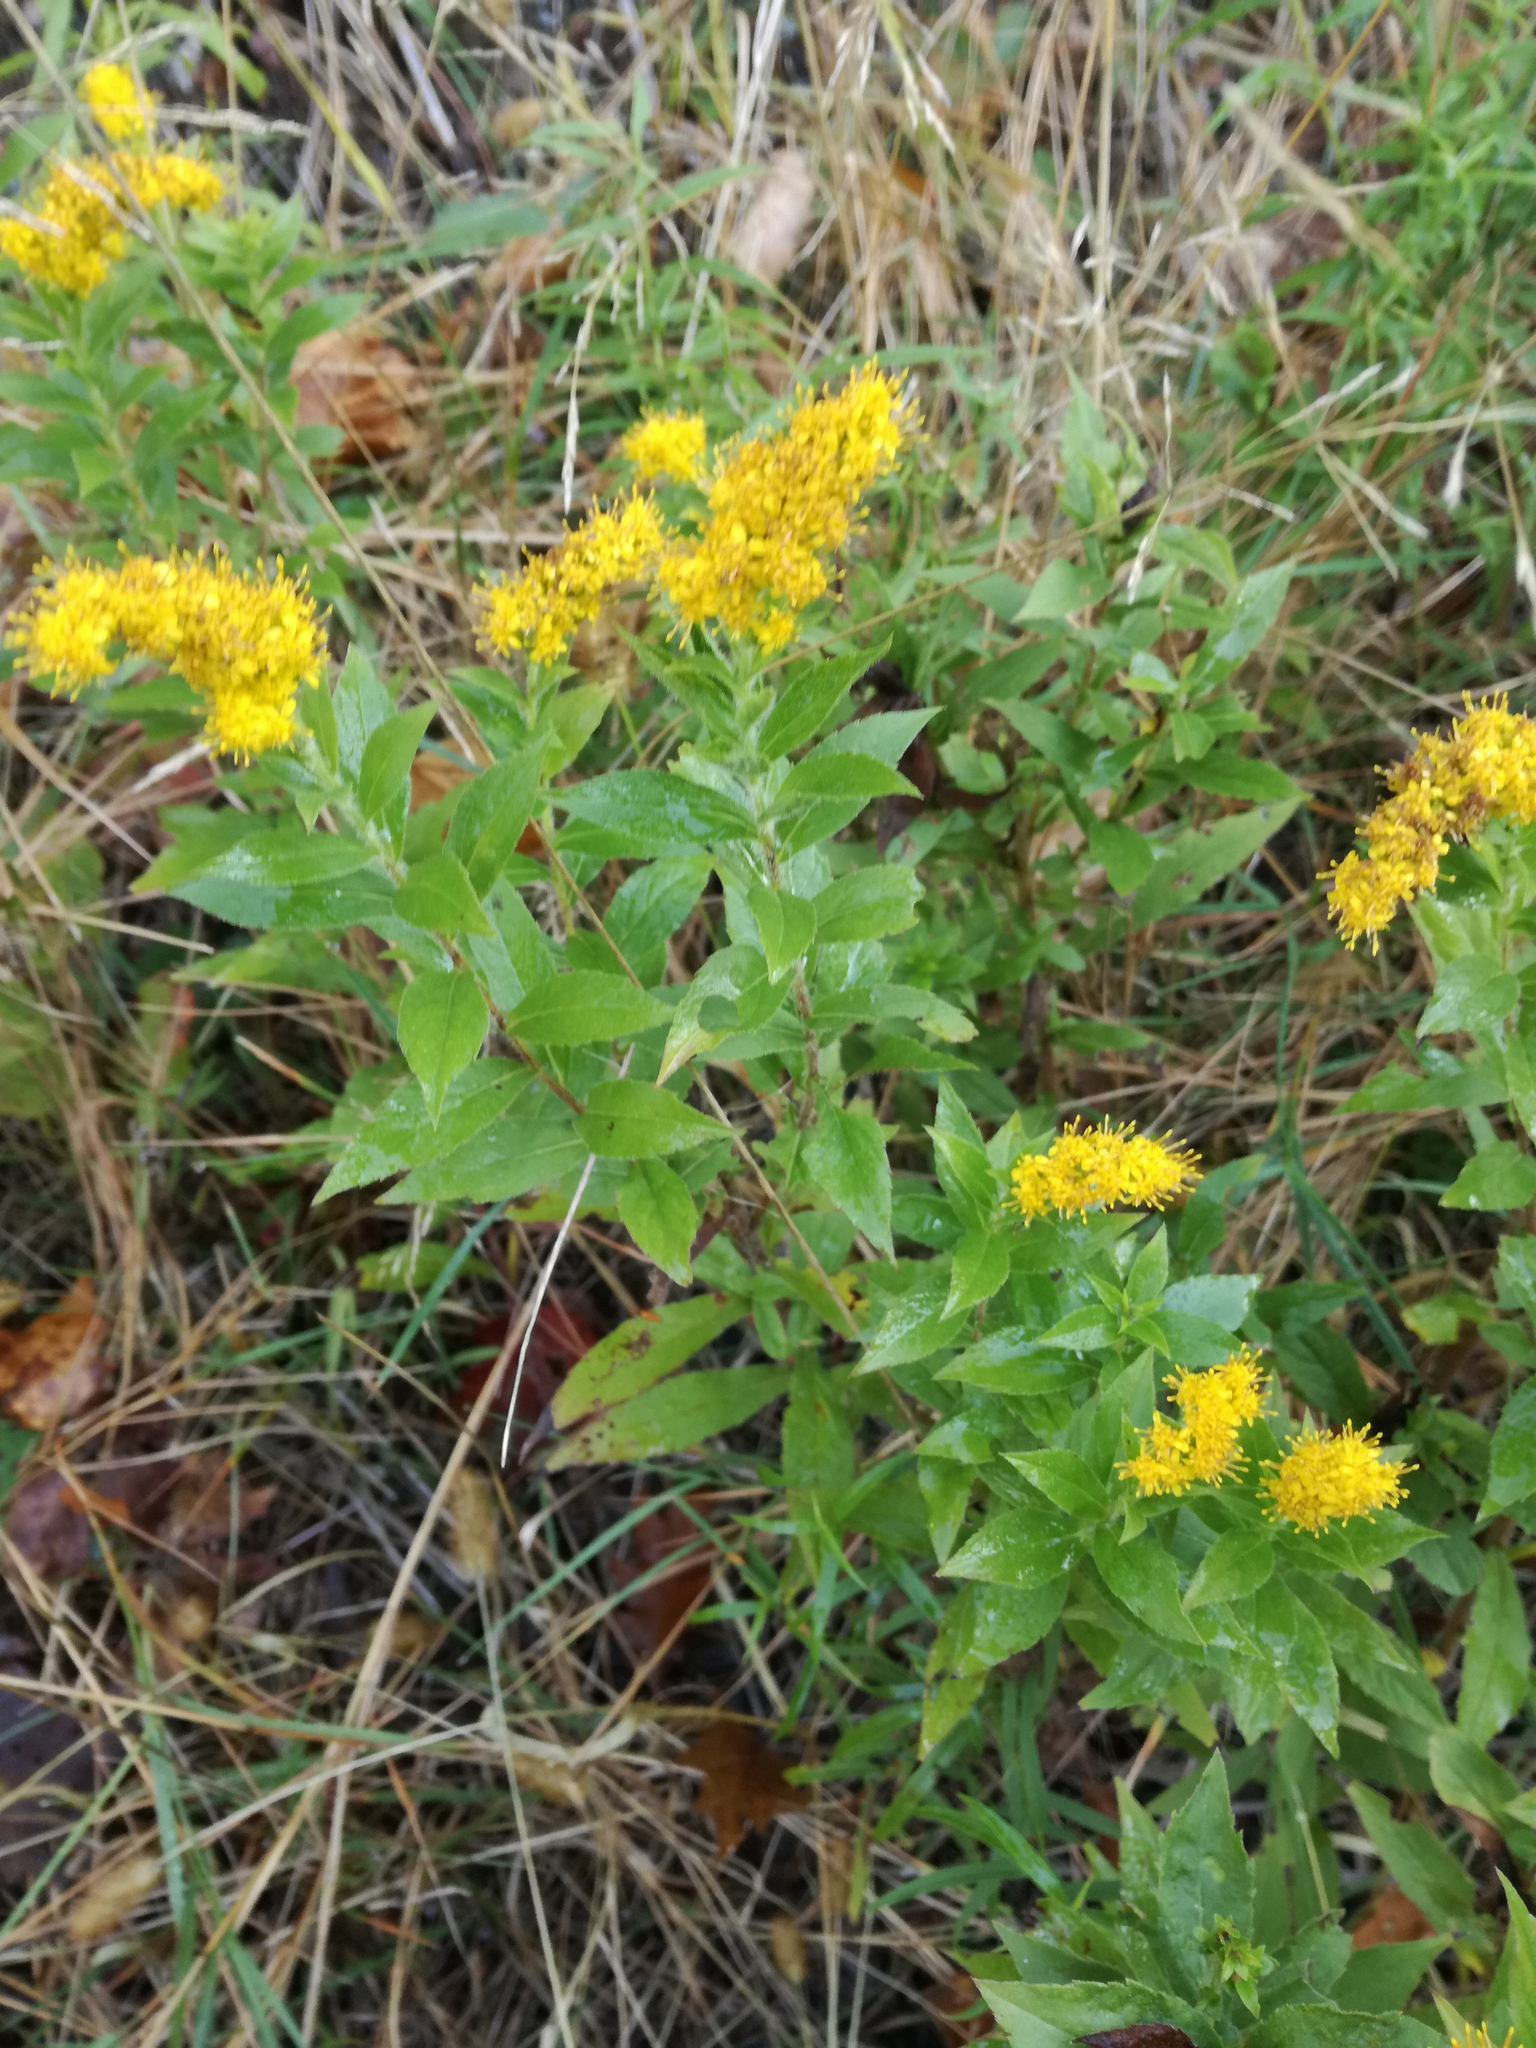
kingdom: Plantae
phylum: Tracheophyta
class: Magnoliopsida
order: Asterales
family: Asteraceae
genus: Solidago
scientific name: Solidago rugosa
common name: Rough-stemmed goldenrod
